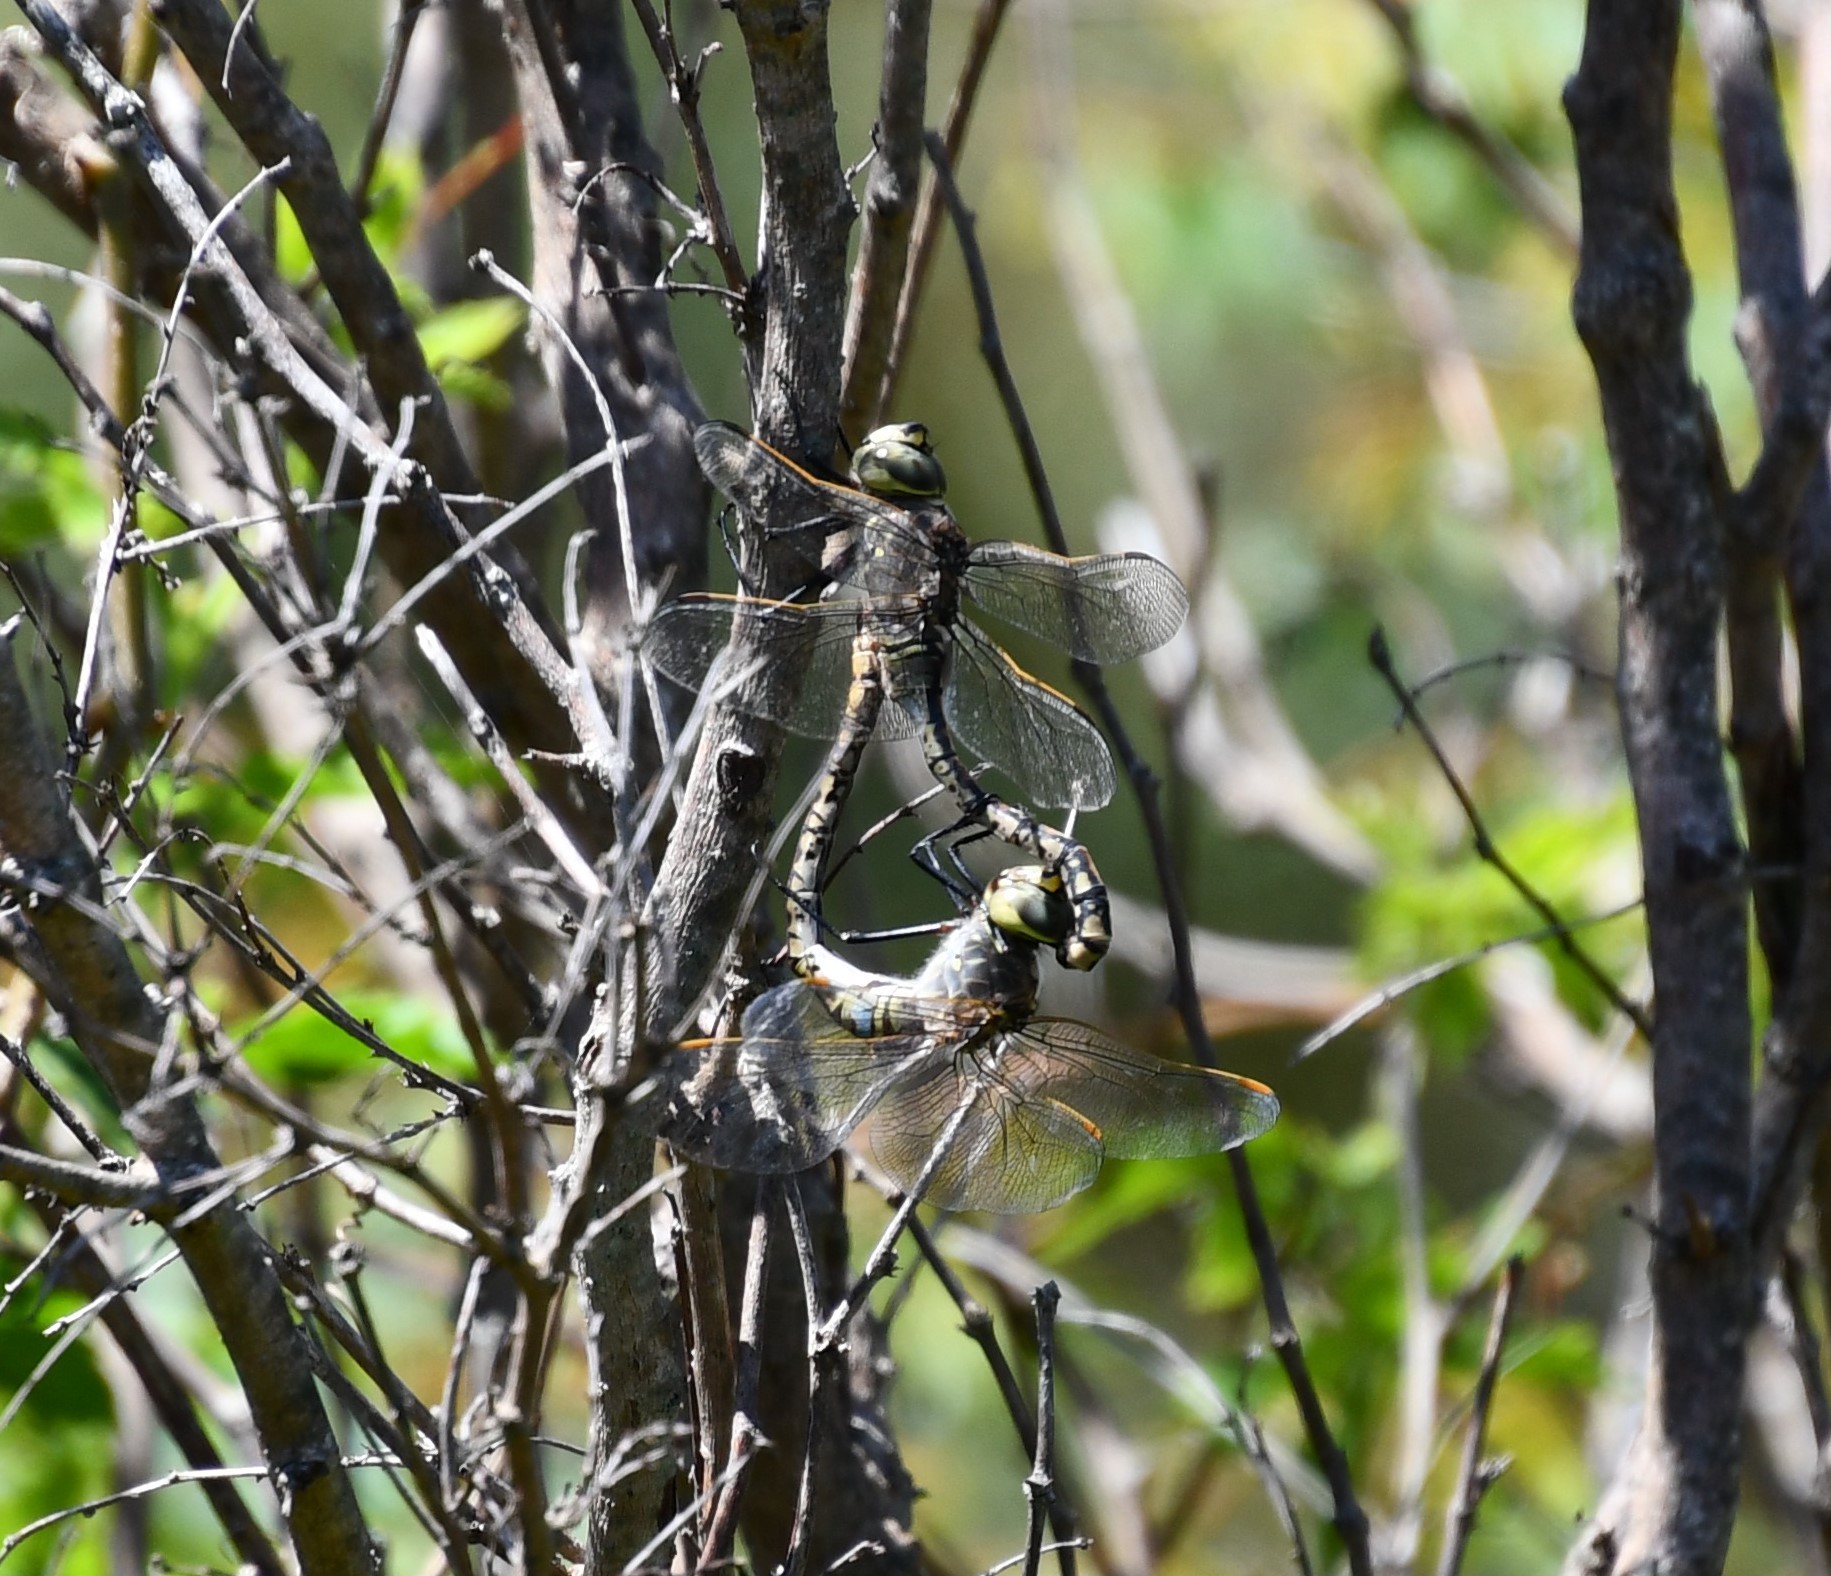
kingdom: Animalia
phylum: Arthropoda
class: Insecta
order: Odonata
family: Aeshnidae
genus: Anax
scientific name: Anax papuensis
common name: Australian emperor
